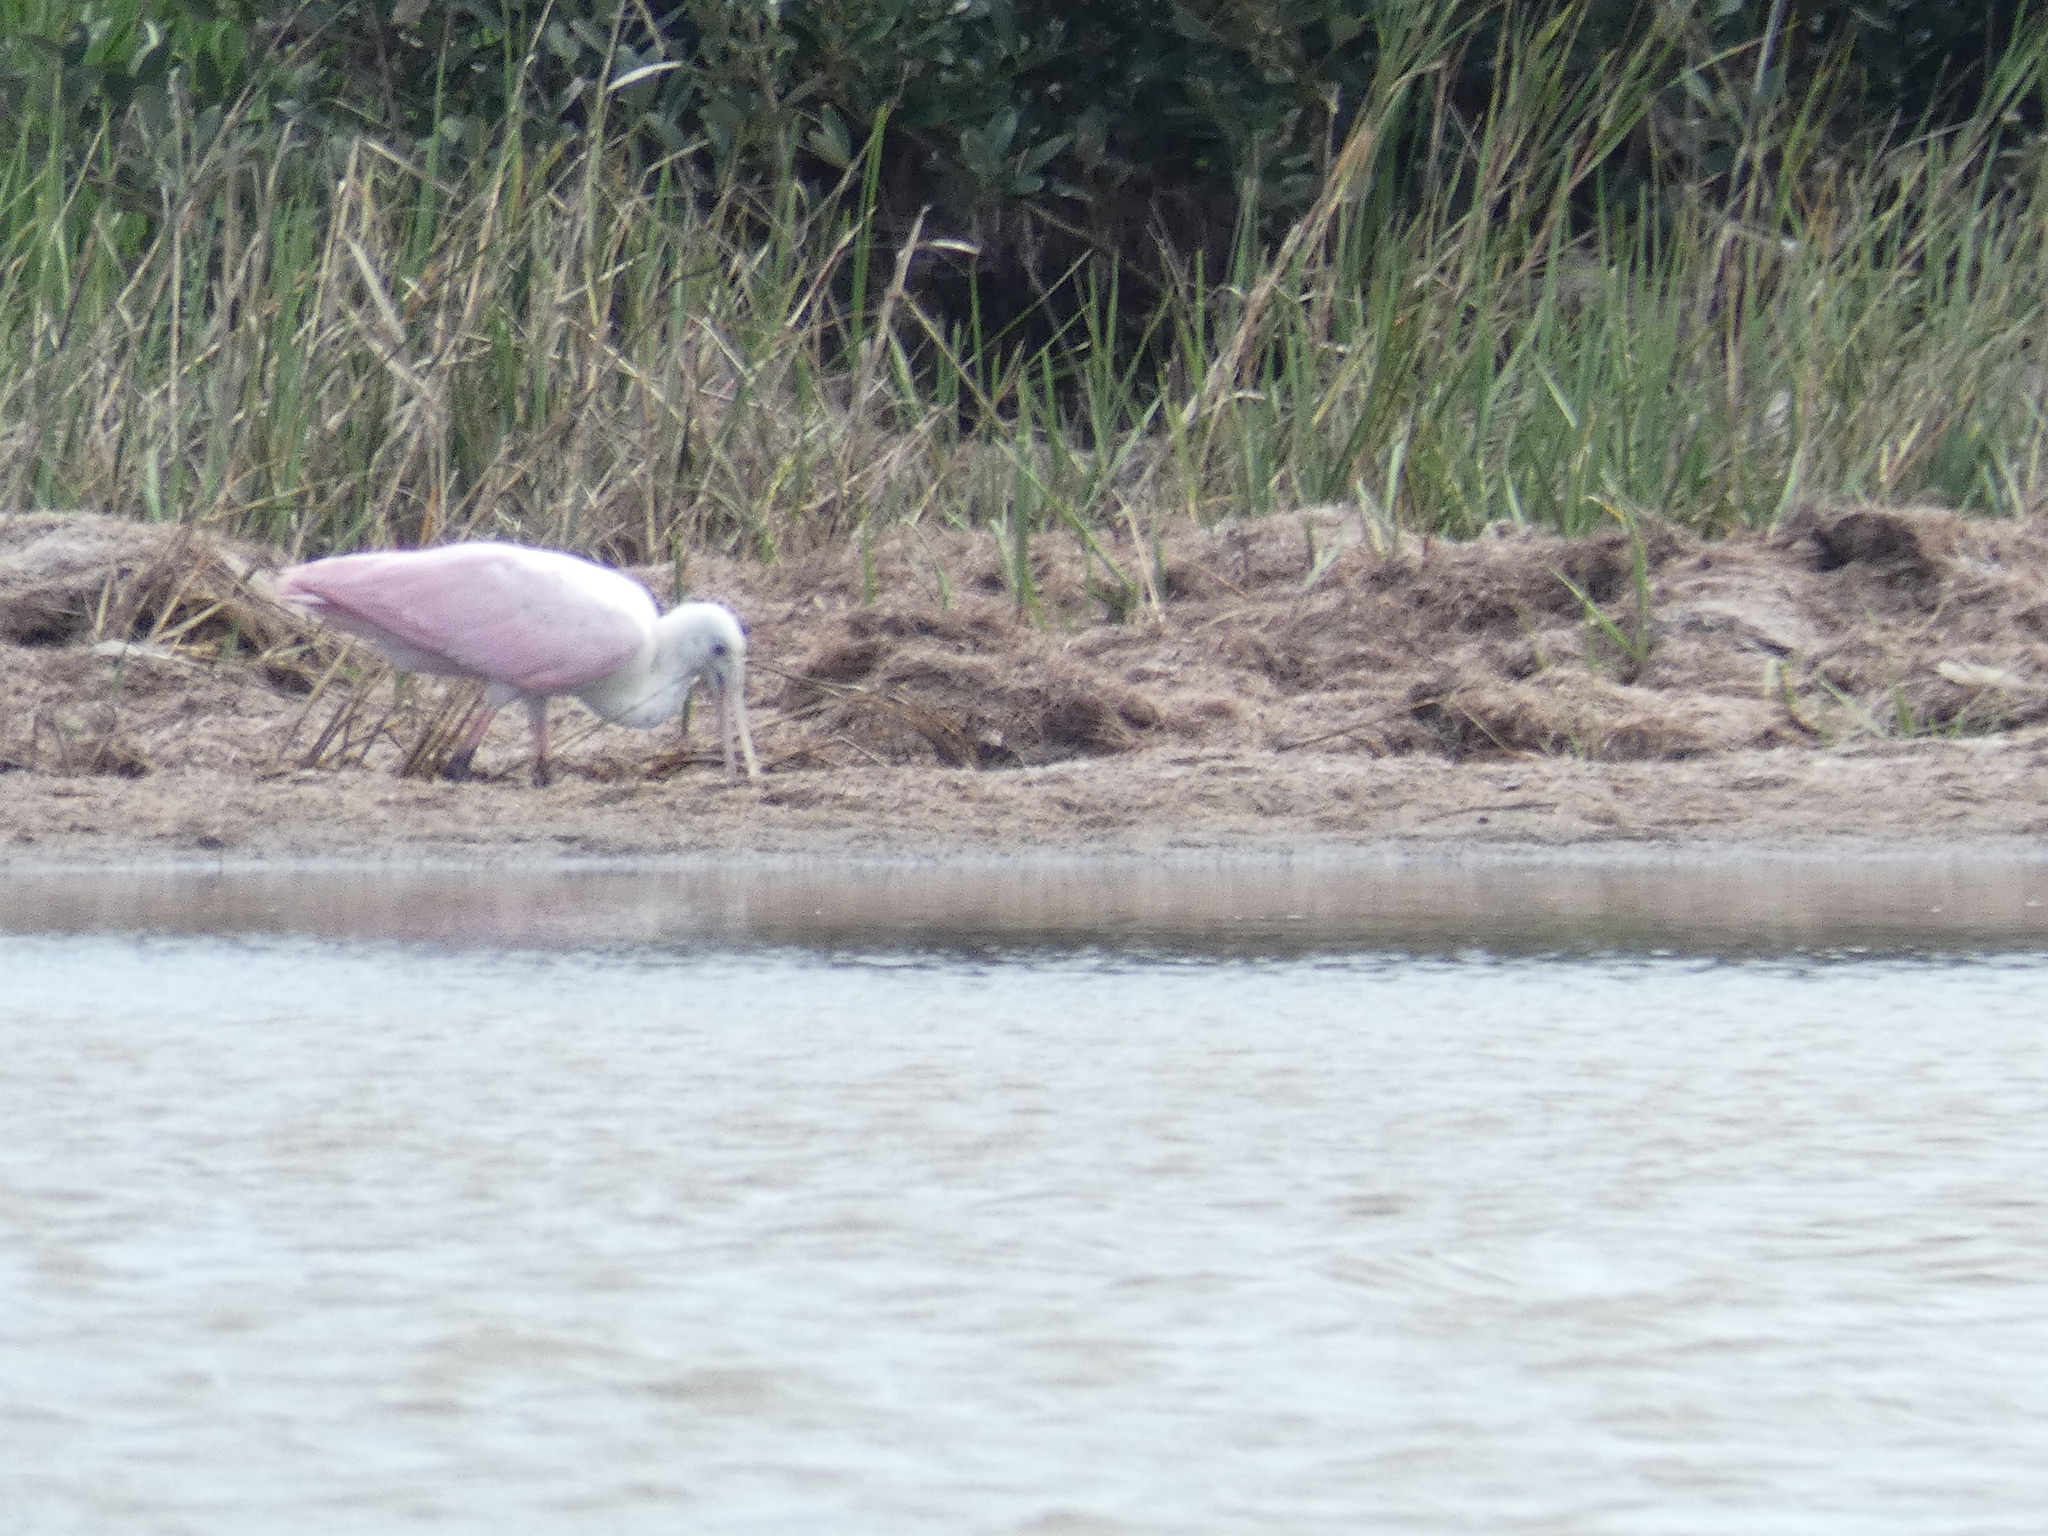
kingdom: Animalia
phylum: Chordata
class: Aves
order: Pelecaniformes
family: Threskiornithidae
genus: Platalea
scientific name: Platalea ajaja
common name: Roseate spoonbill
